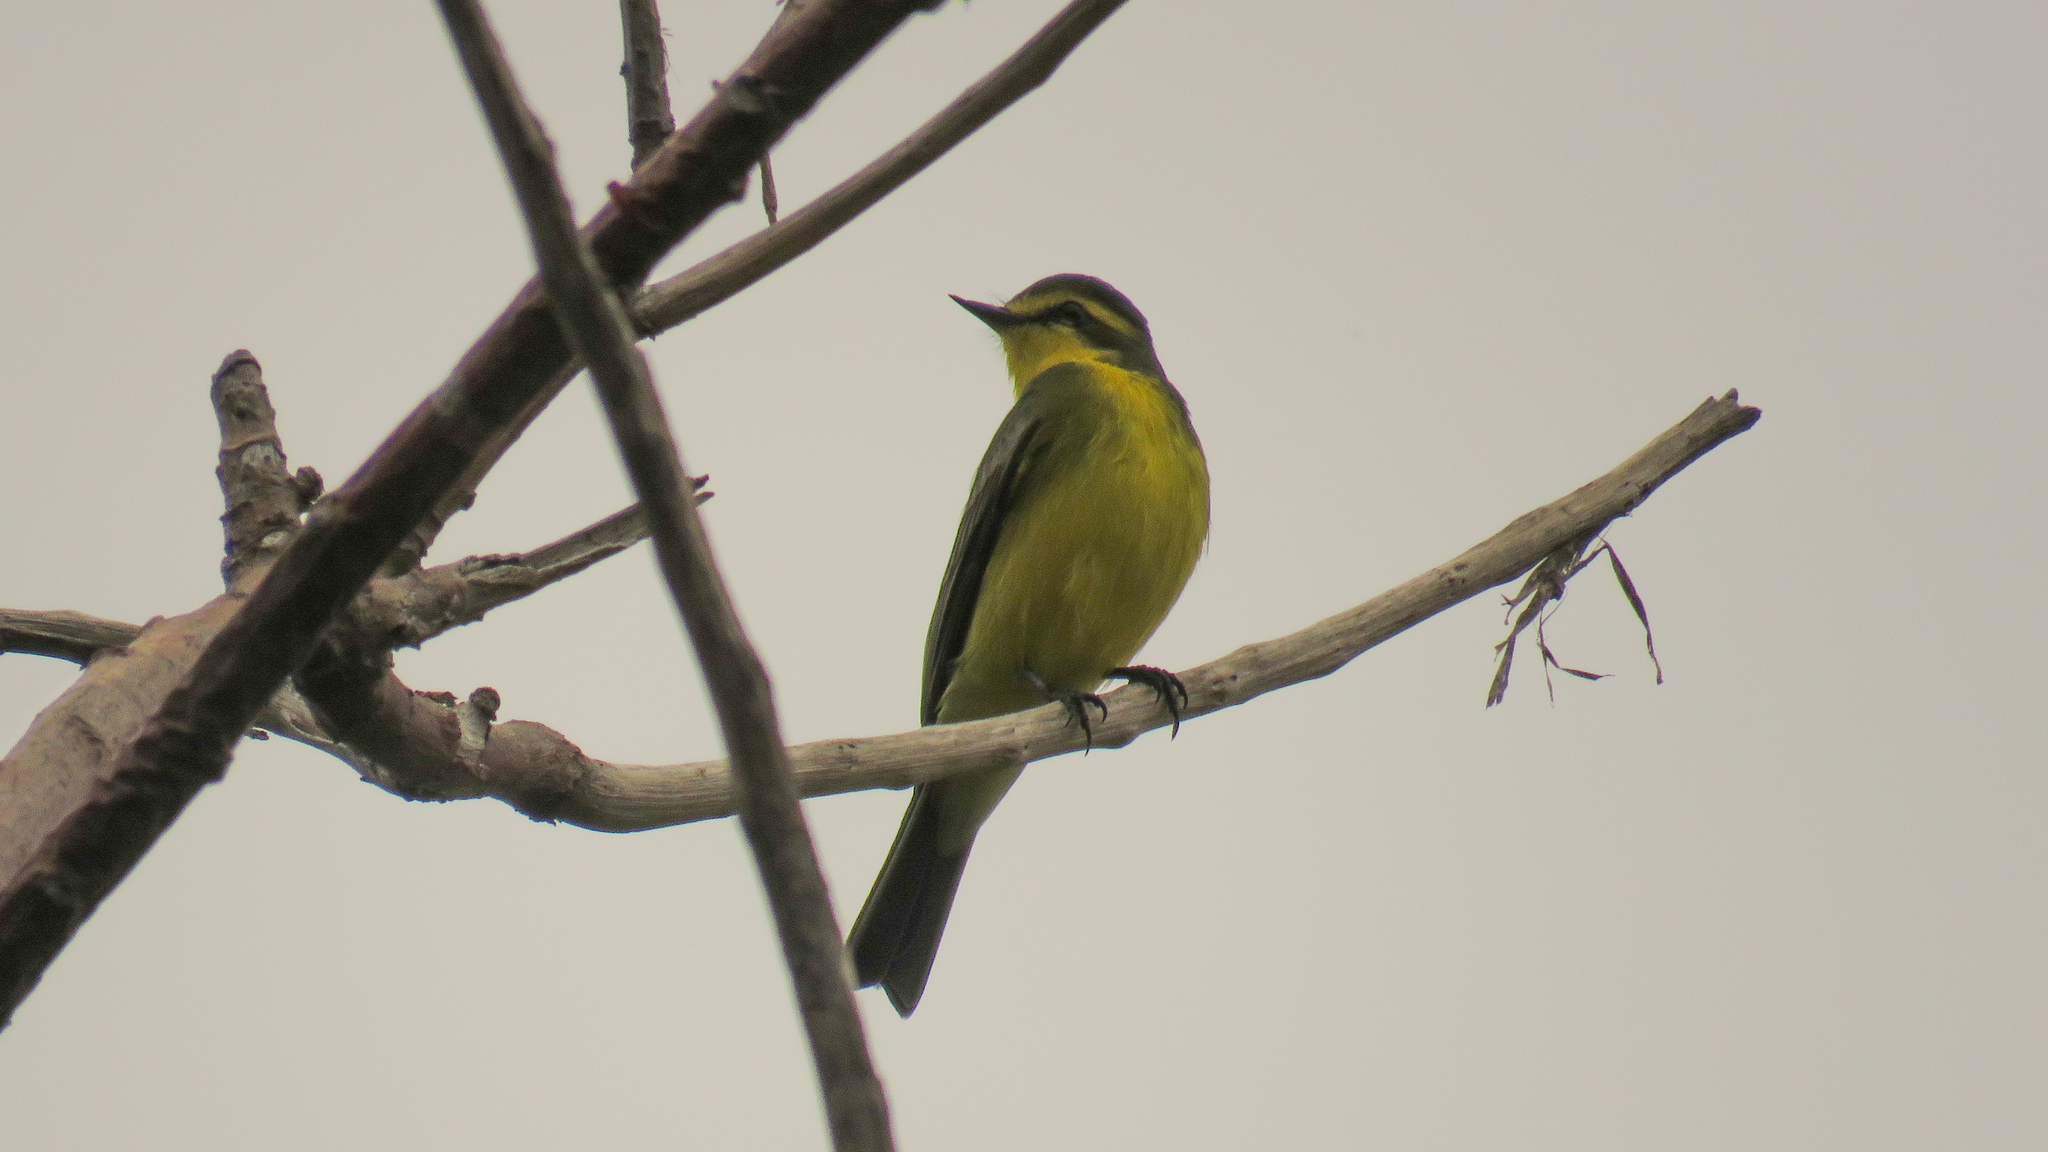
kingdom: Animalia
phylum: Chordata
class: Aves
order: Passeriformes
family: Tyrannidae
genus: Satrapa
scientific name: Satrapa icterophrys
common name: Yellow-browed tyrant
